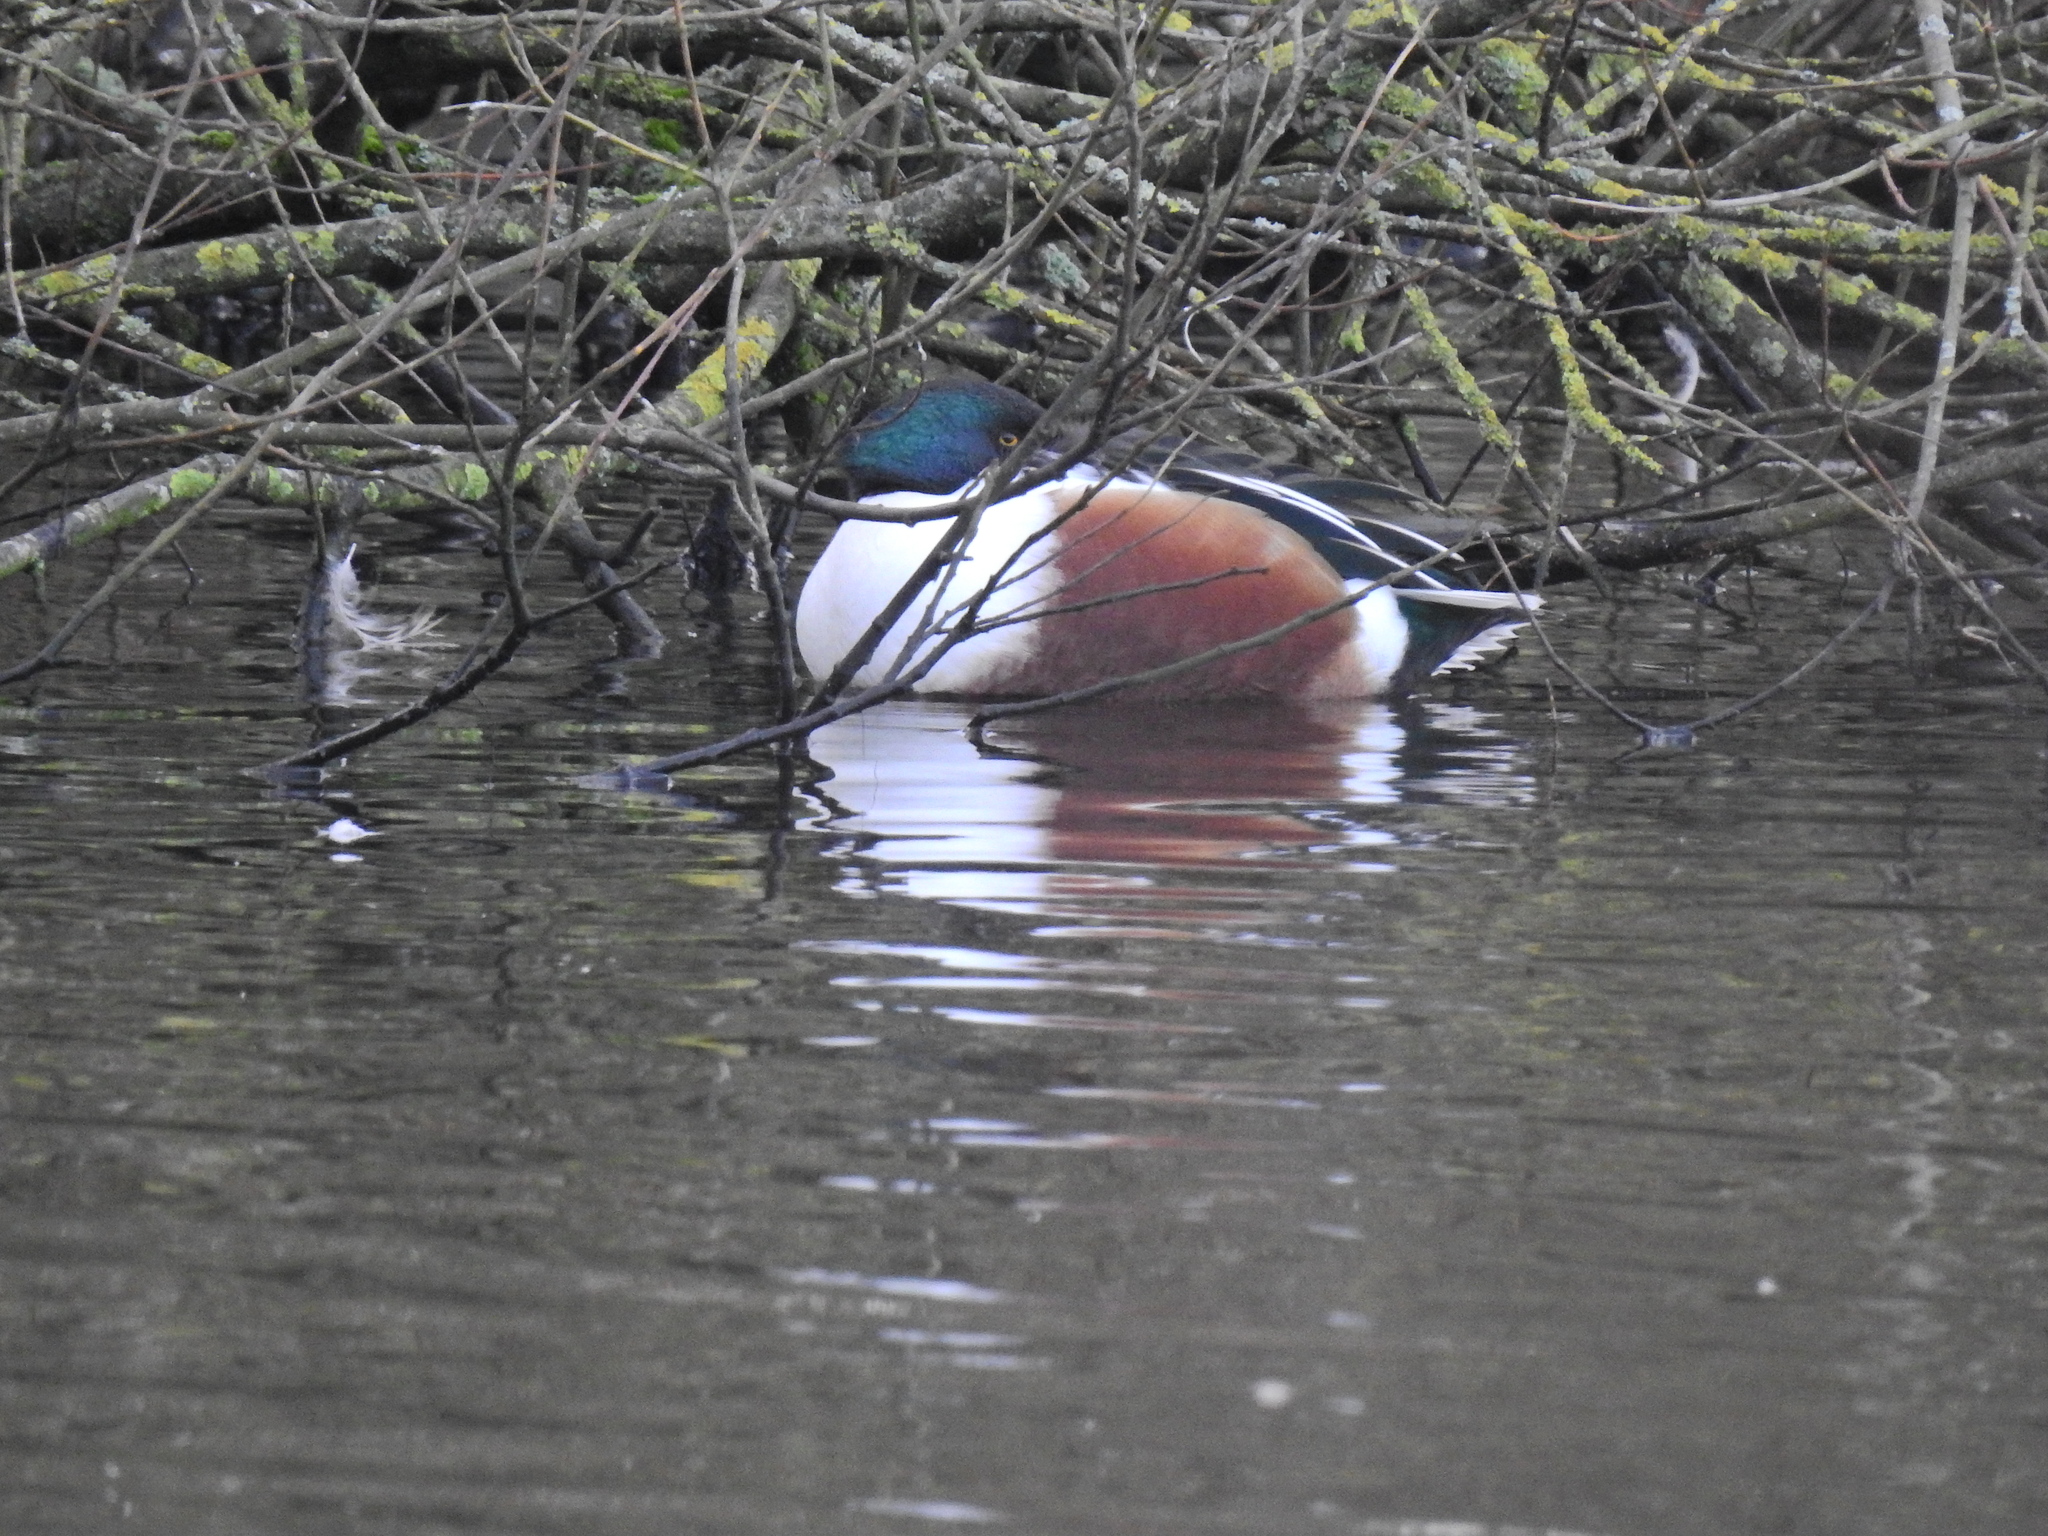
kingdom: Animalia
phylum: Chordata
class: Aves
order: Anseriformes
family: Anatidae
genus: Spatula
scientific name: Spatula clypeata
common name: Northern shoveler
